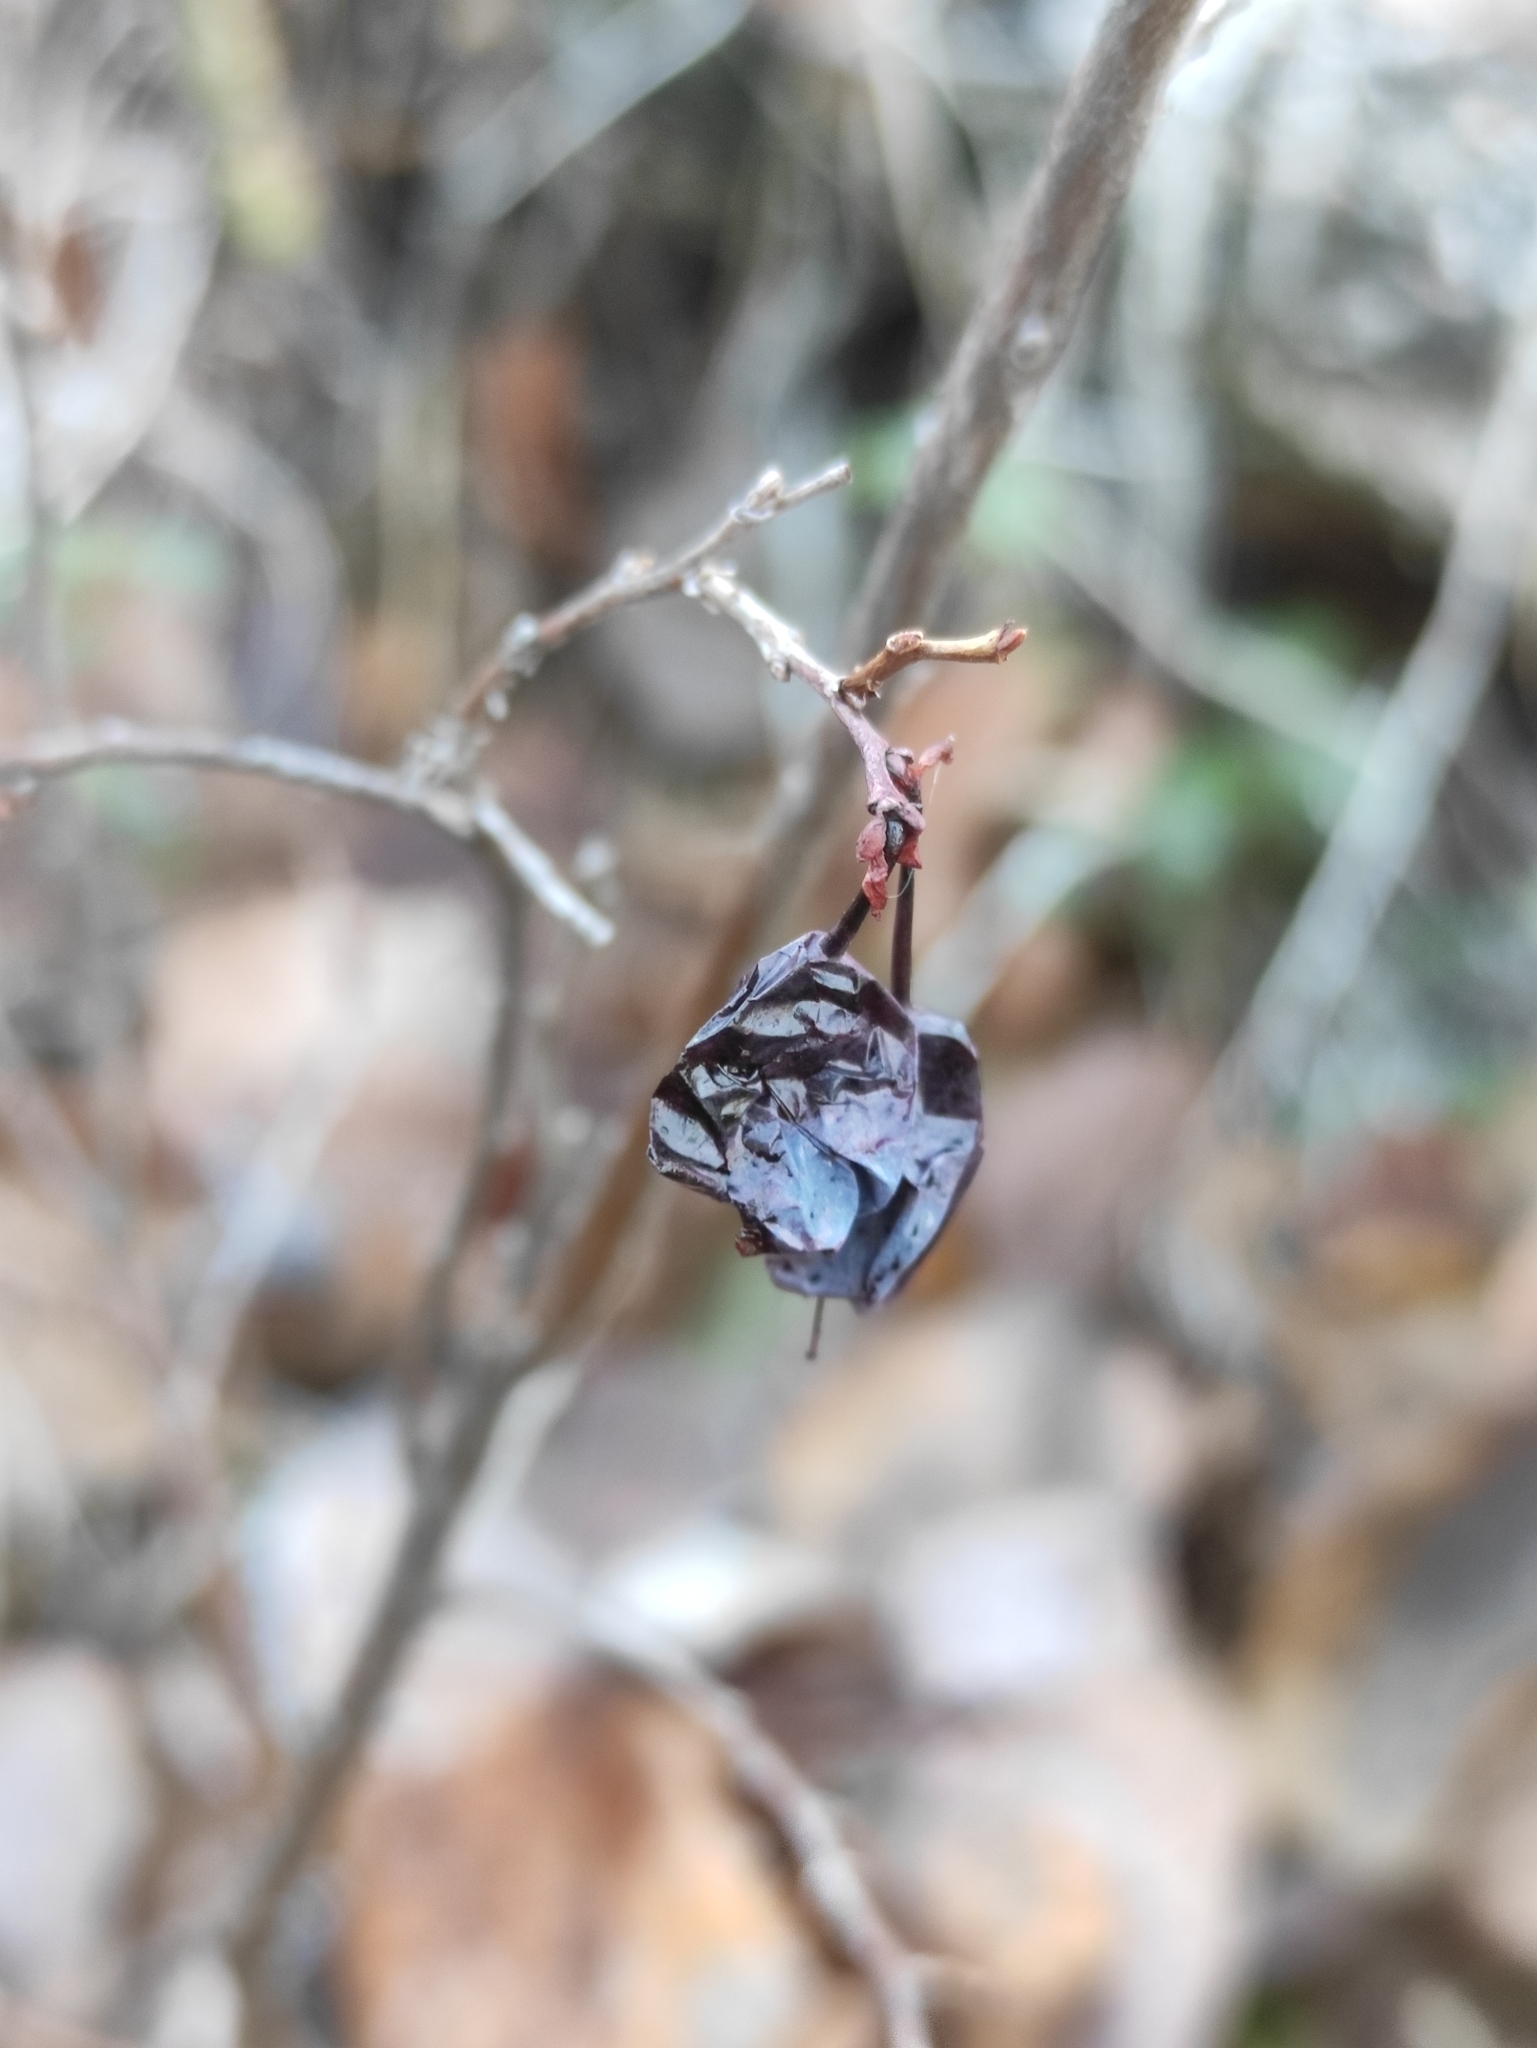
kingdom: Plantae
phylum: Tracheophyta
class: Magnoliopsida
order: Ericales
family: Ericaceae
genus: Vaccinium
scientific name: Vaccinium uliginosum
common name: Bog bilberry
